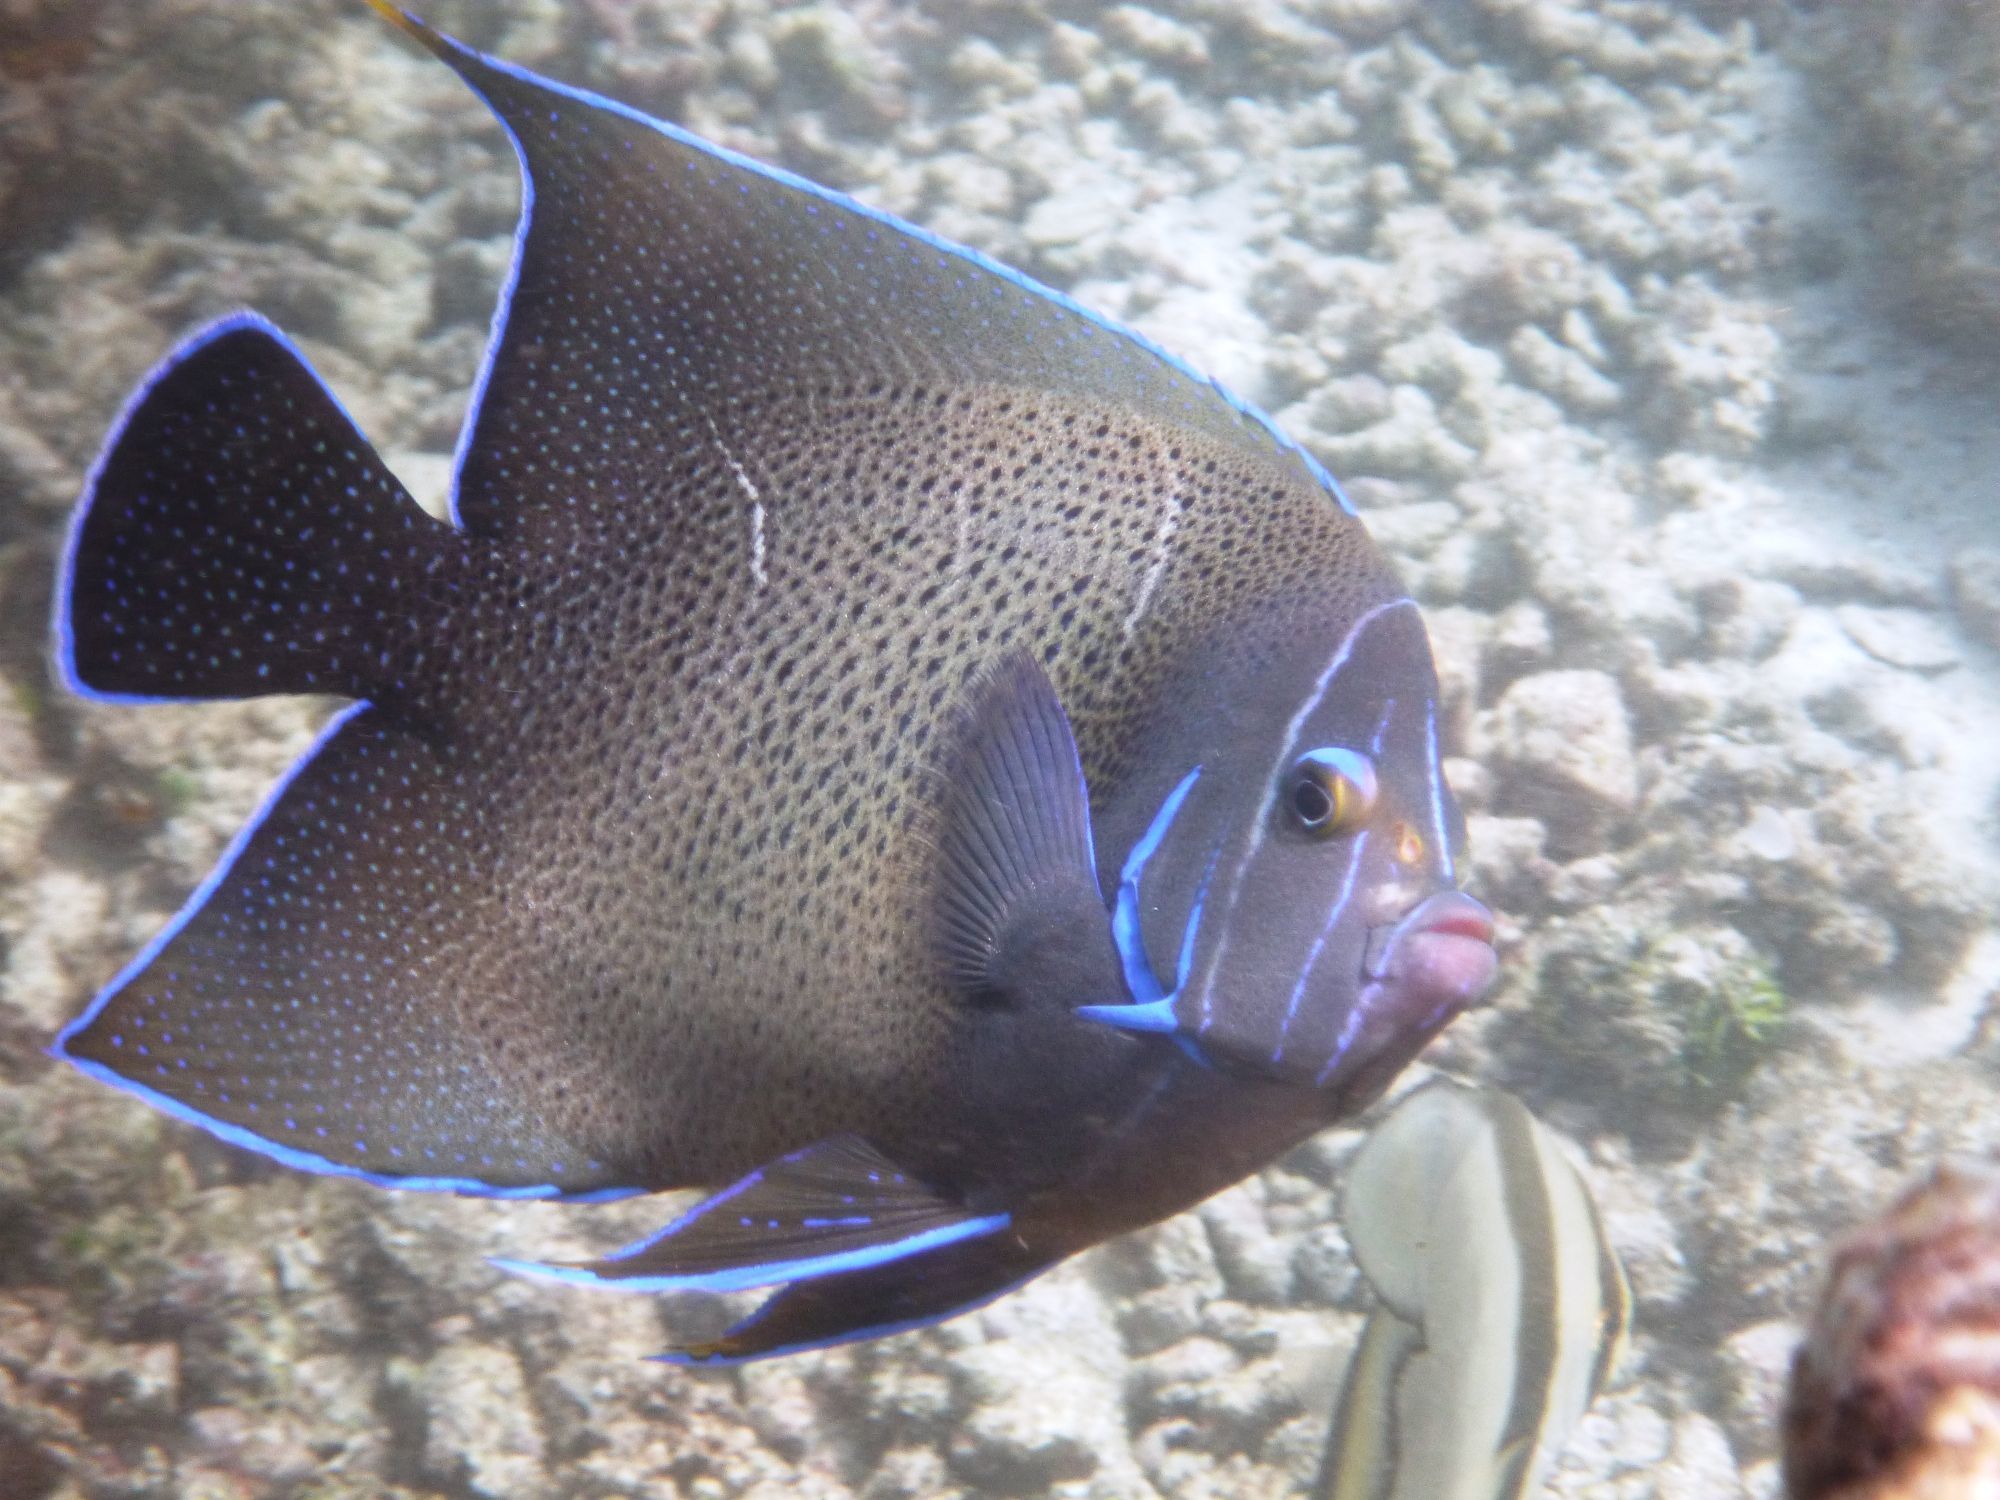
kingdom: Animalia
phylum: Chordata
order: Perciformes
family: Pomacanthidae
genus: Pomacanthus
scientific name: Pomacanthus semicirculatus
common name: Semicircle angelfish
